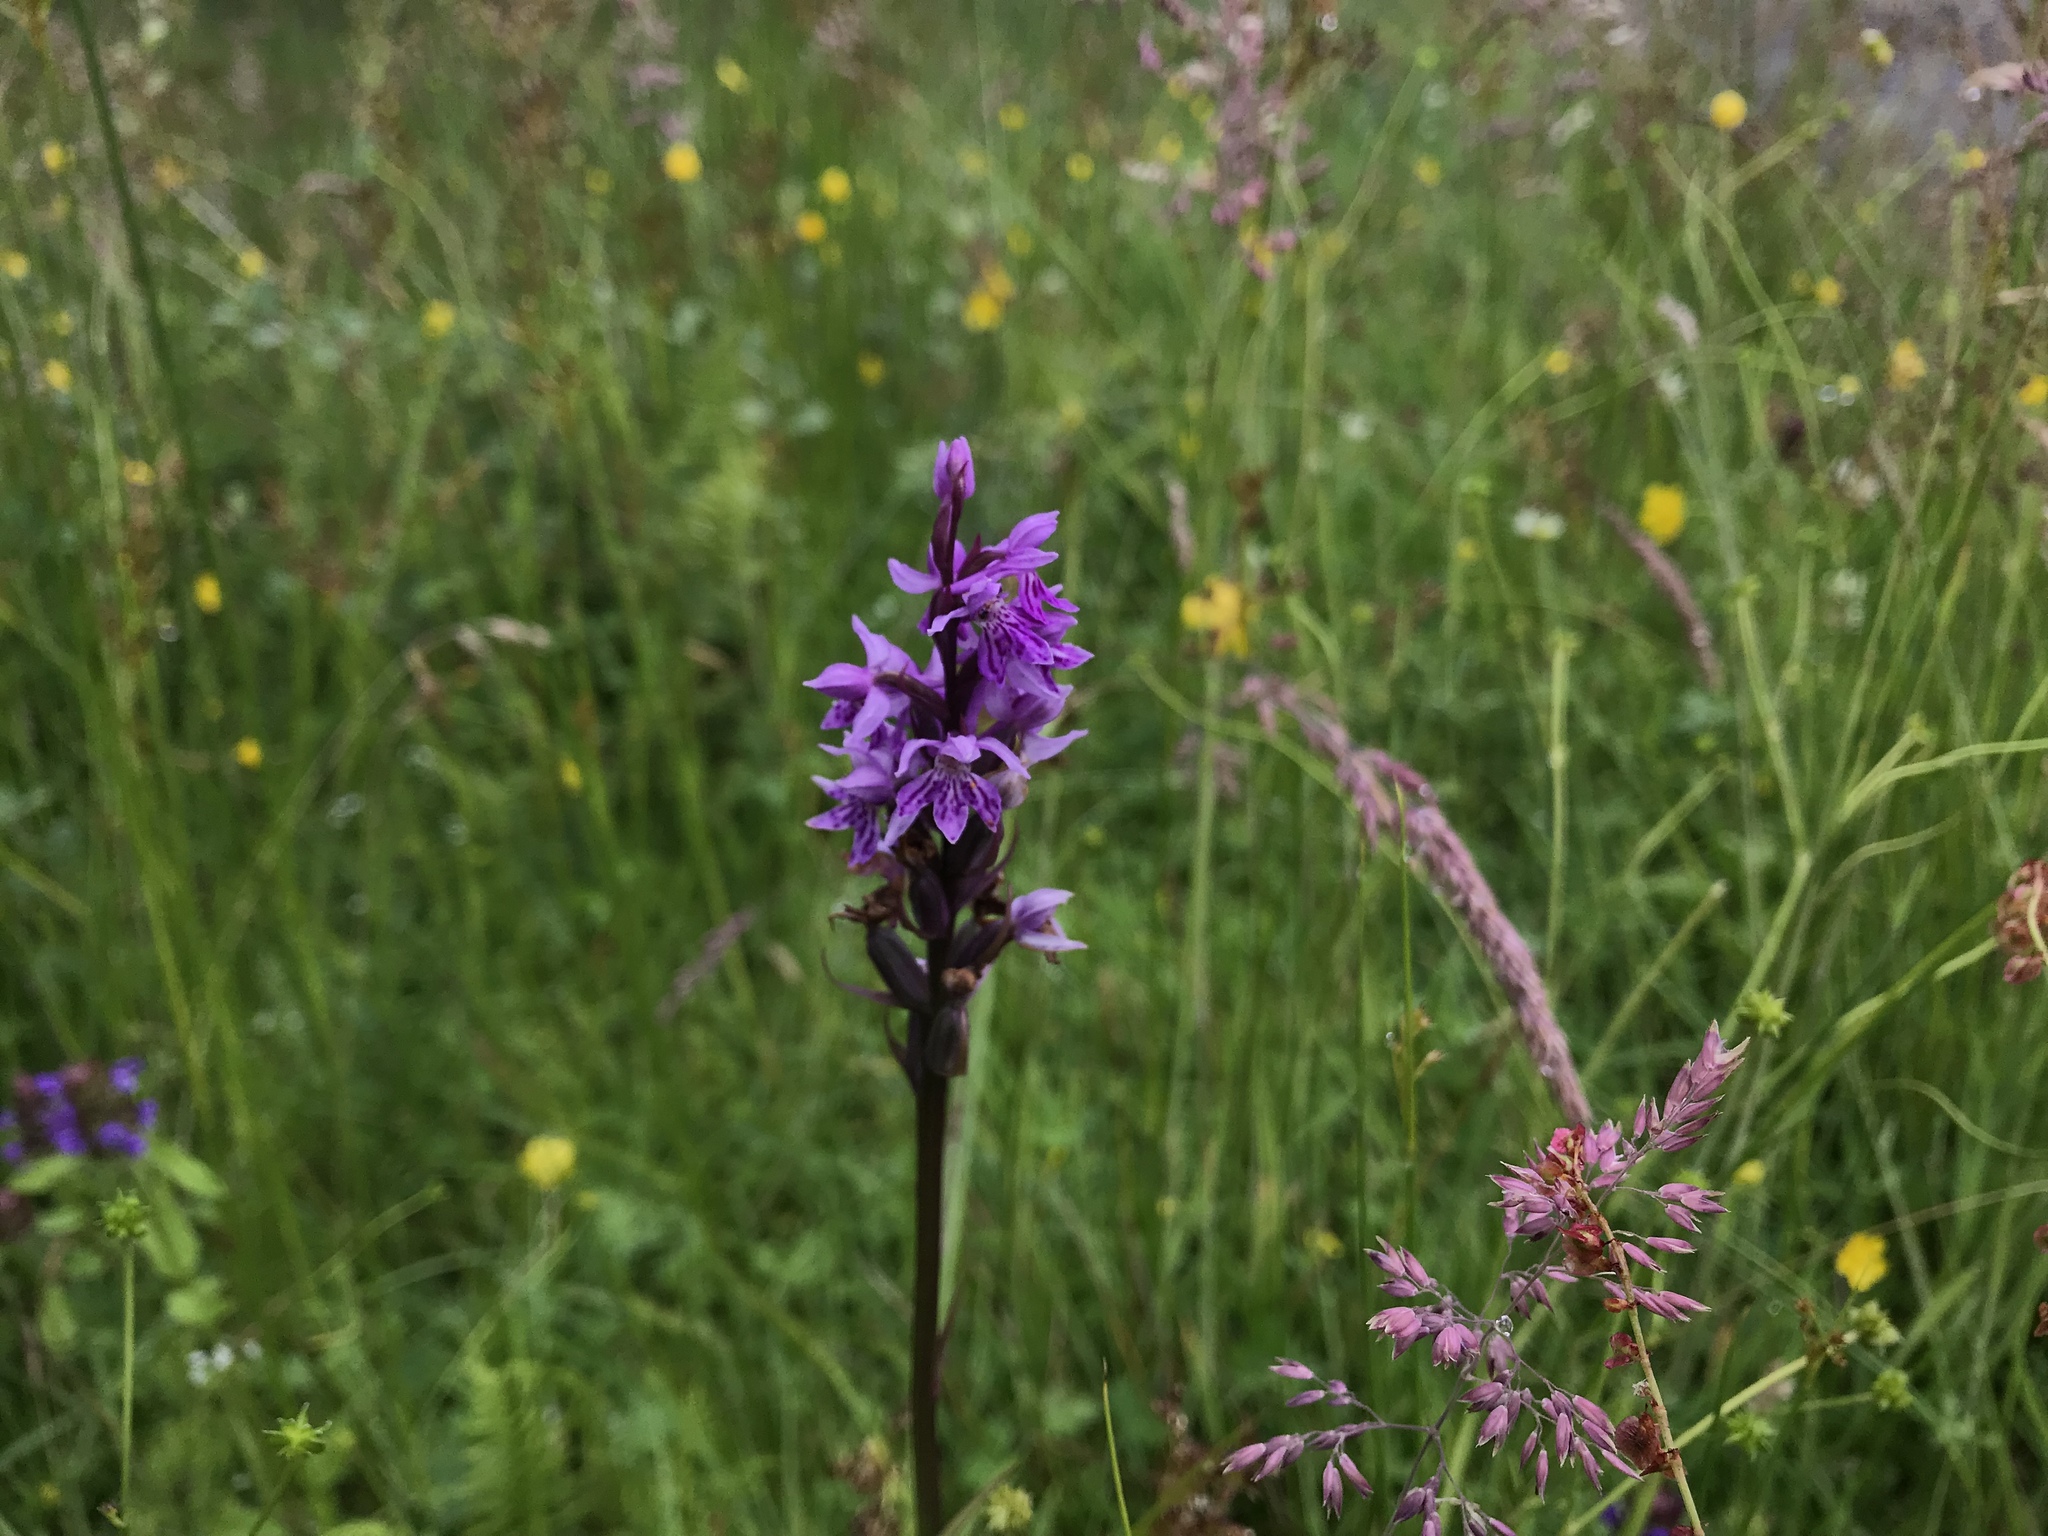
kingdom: Plantae
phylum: Tracheophyta
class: Liliopsida
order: Asparagales
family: Orchidaceae
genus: Dactylorhiza
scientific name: Dactylorhiza maculata
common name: Heath spotted-orchid
